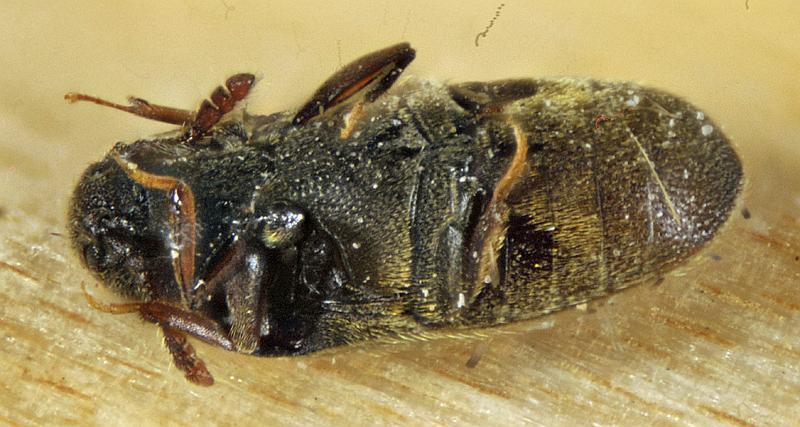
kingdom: Animalia
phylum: Arthropoda
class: Insecta
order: Coleoptera
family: Throscidae
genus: Trixagus
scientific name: Trixagus chevrolati
